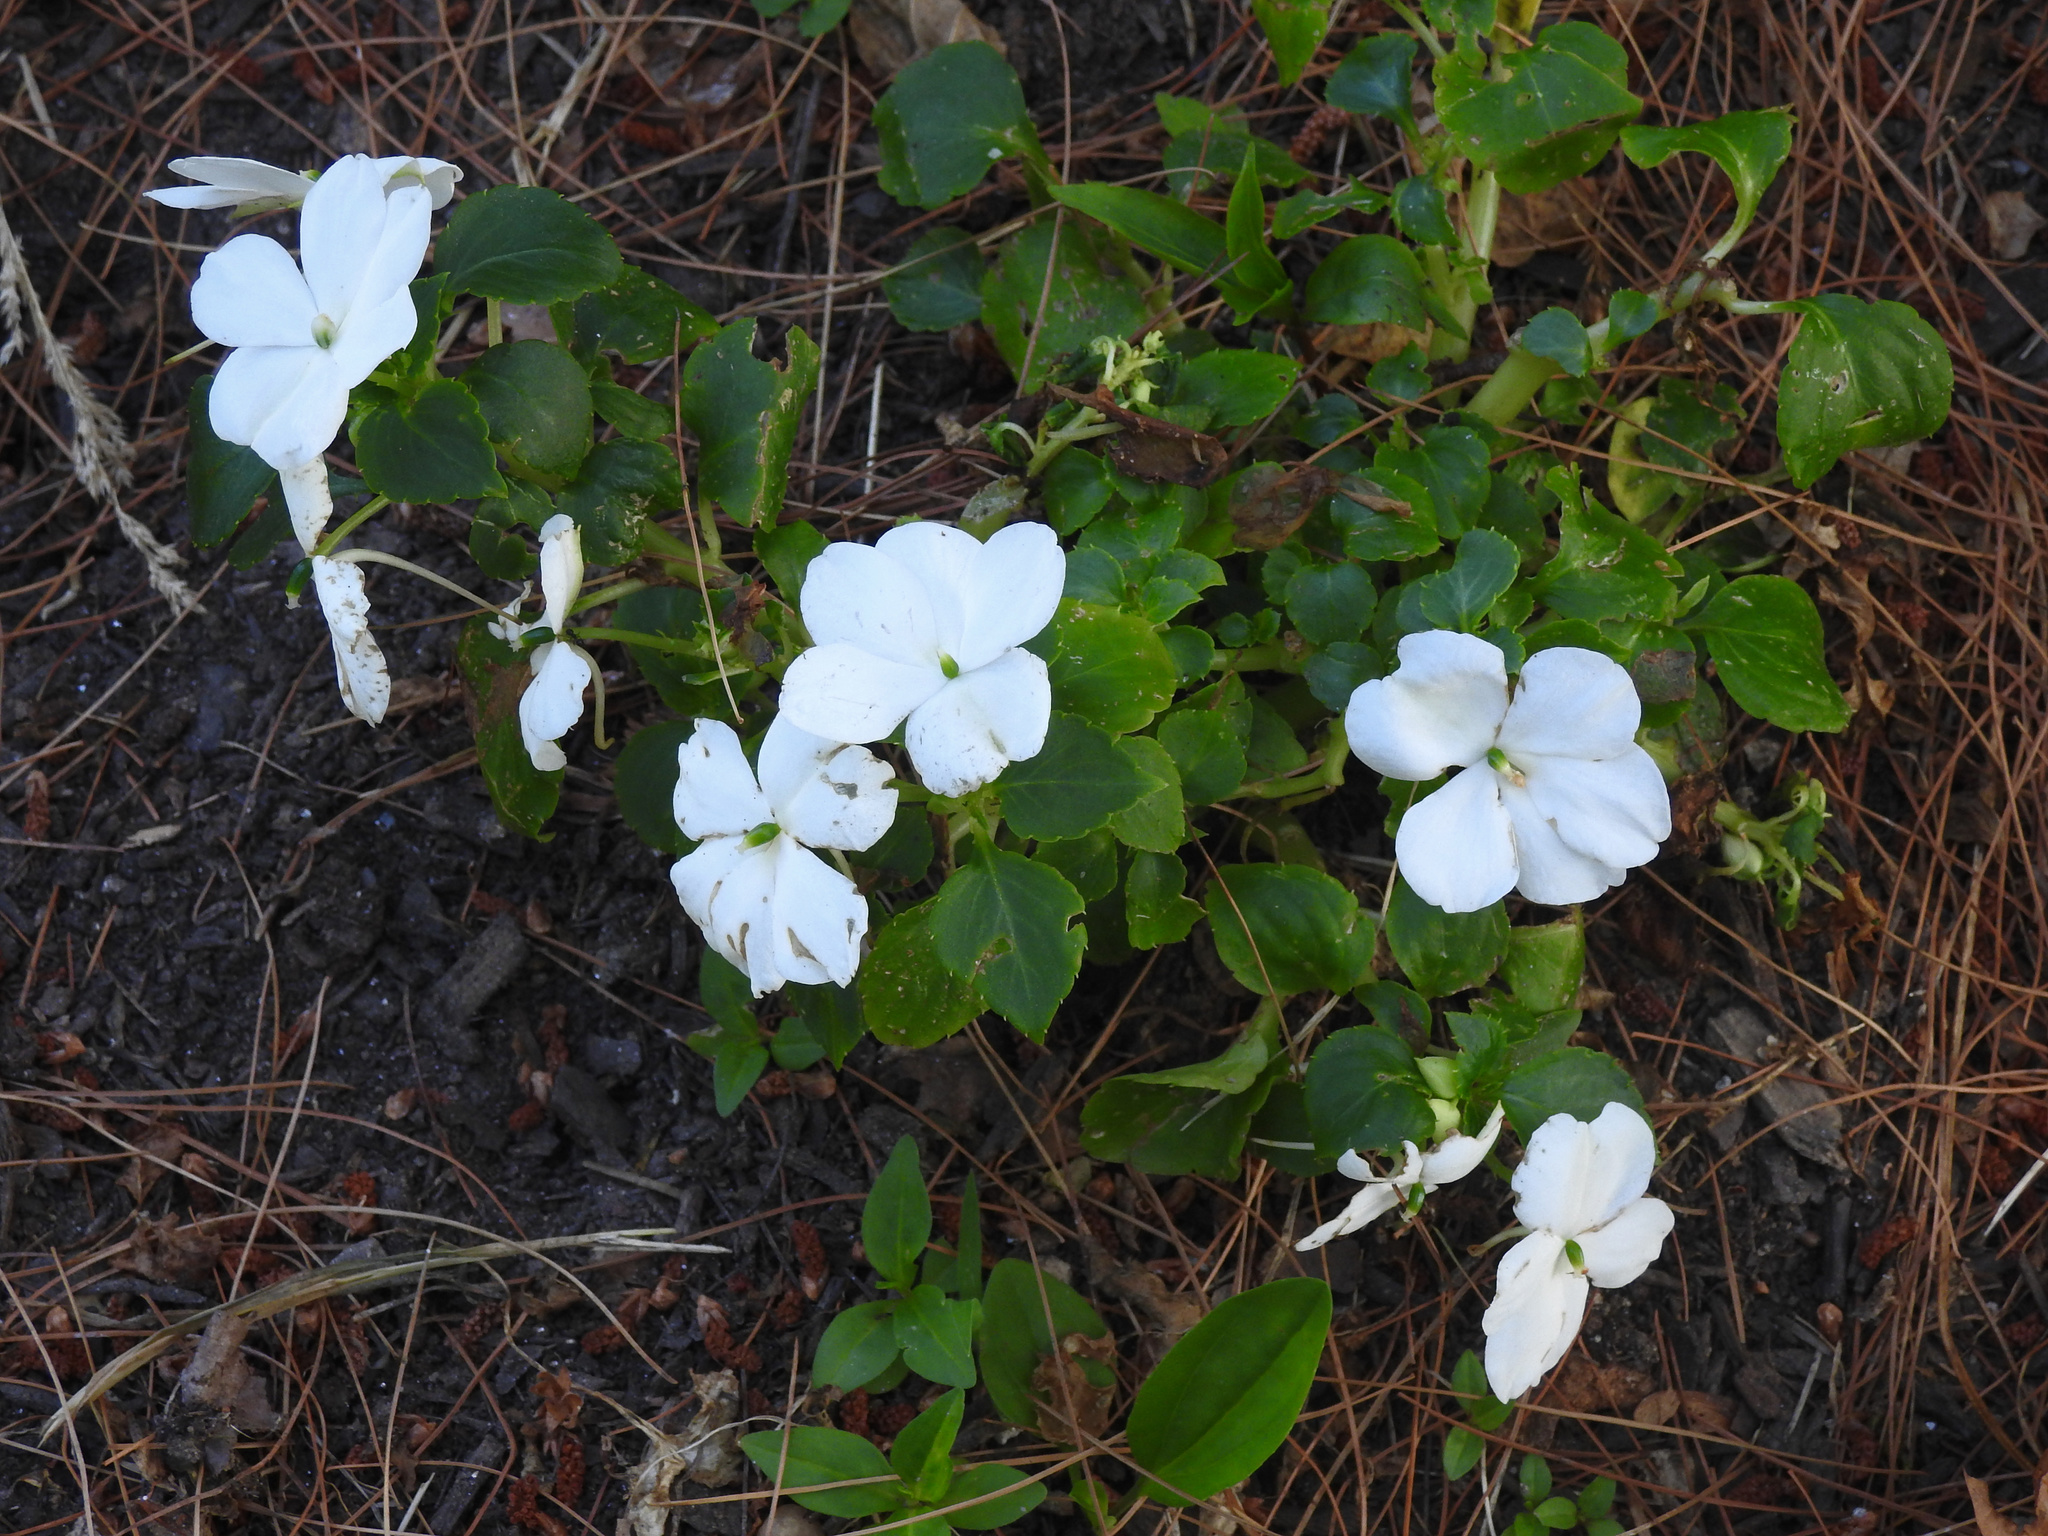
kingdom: Plantae
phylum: Tracheophyta
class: Magnoliopsida
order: Ericales
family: Balsaminaceae
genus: Impatiens
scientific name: Impatiens walleriana
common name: Buzzy lizzy
